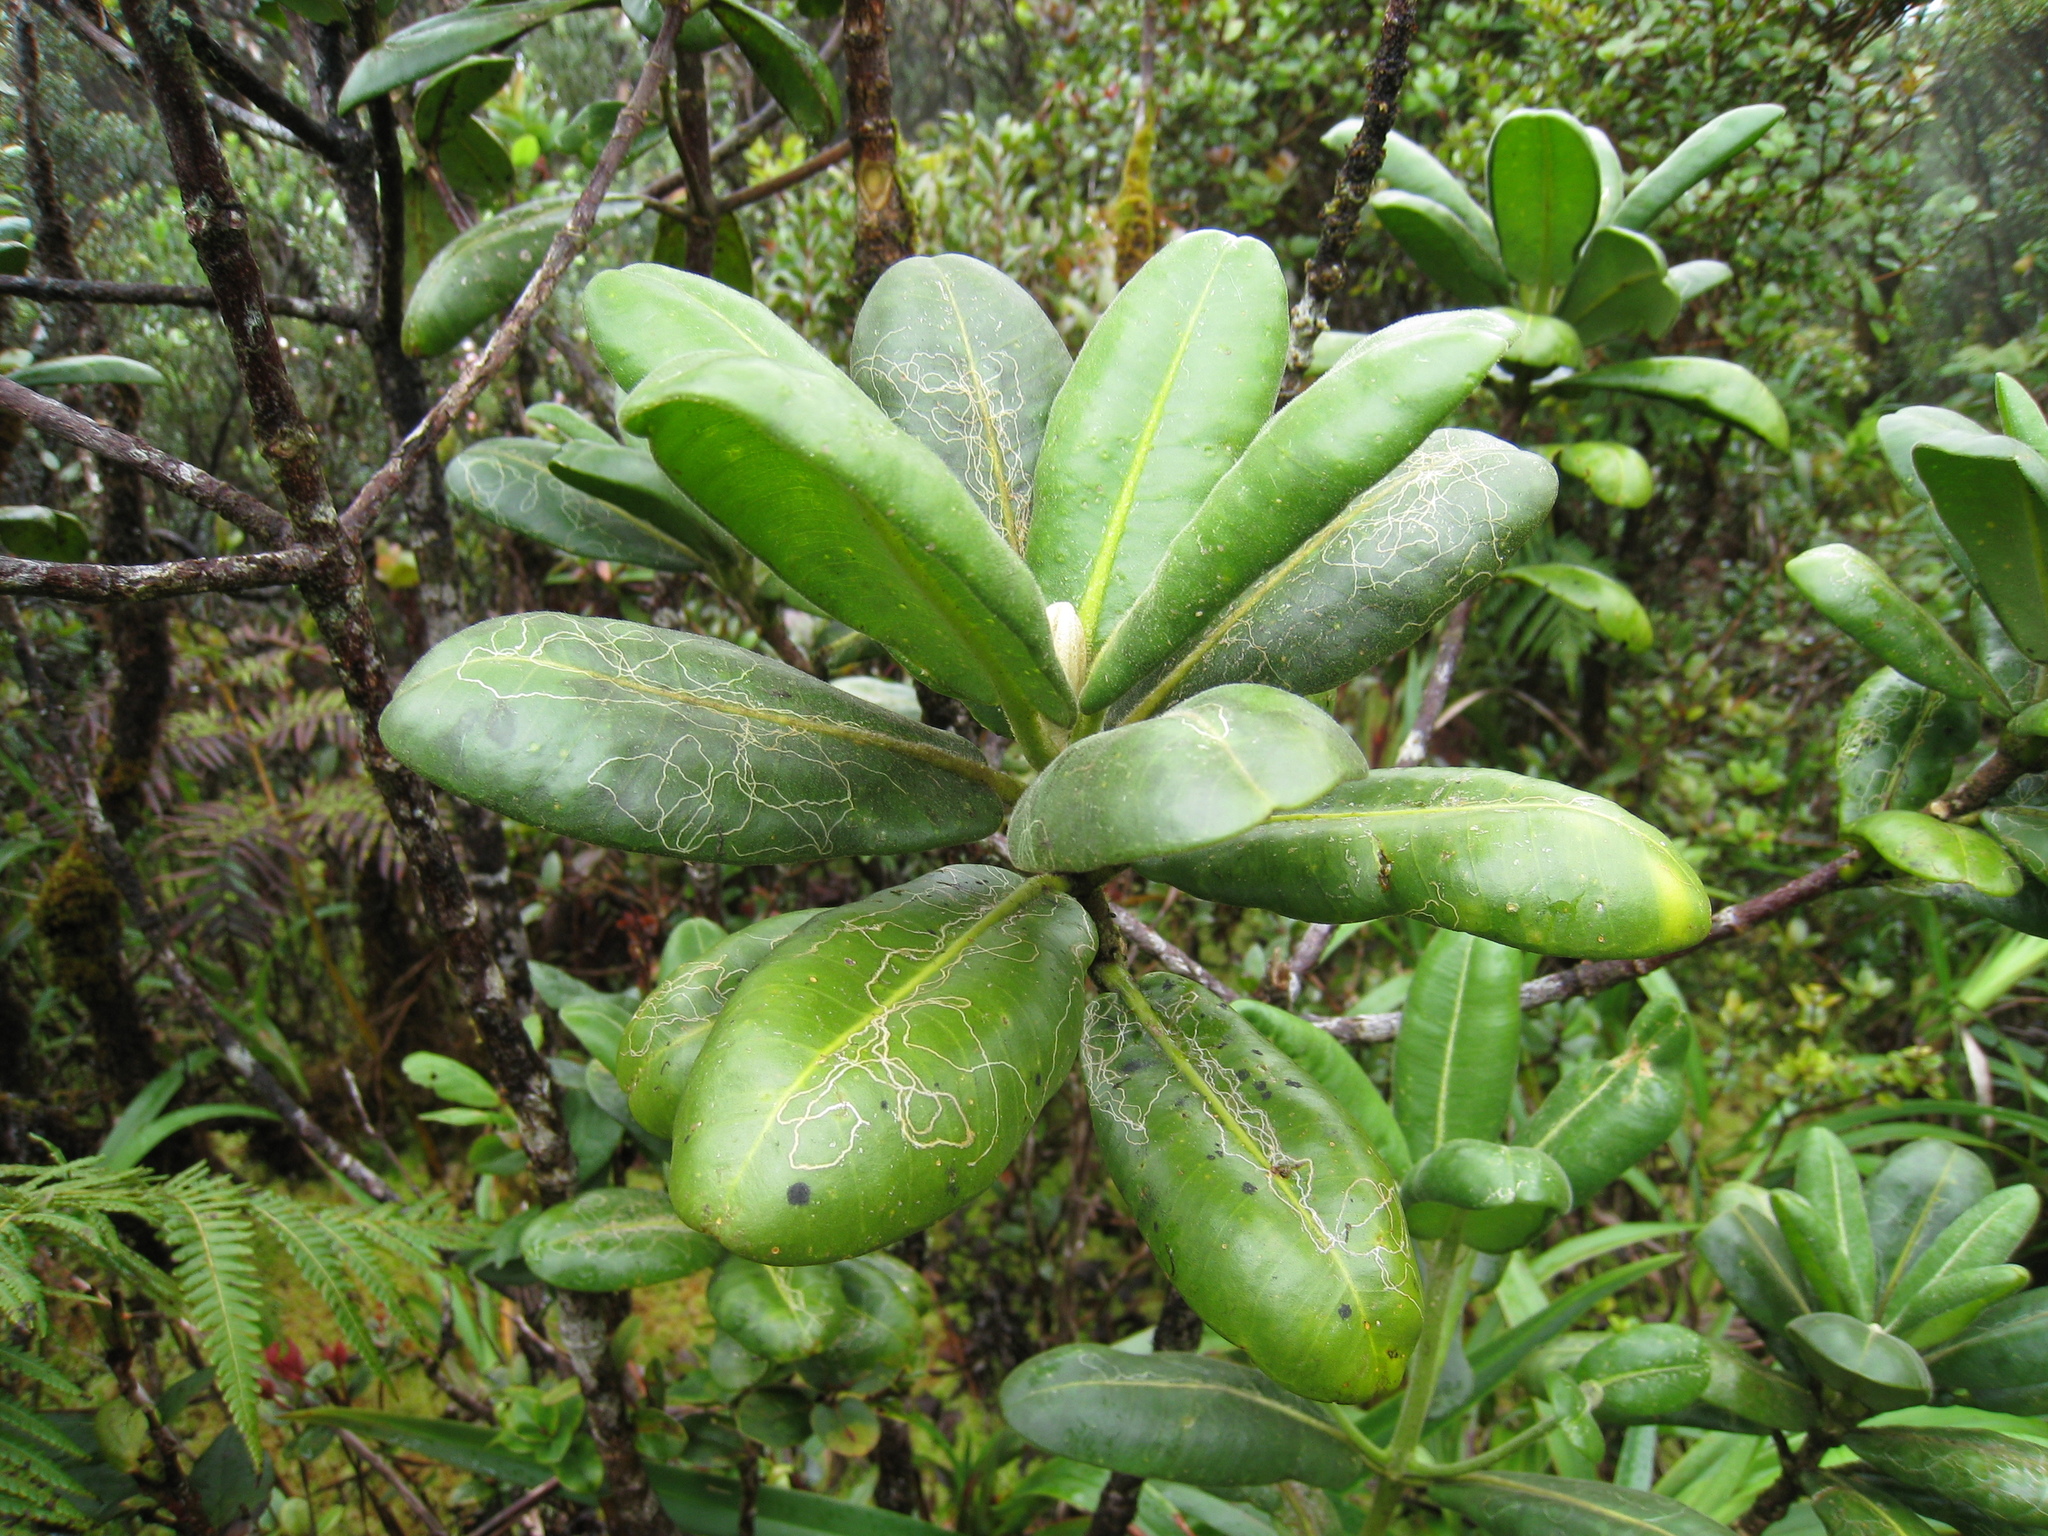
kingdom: Plantae
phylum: Tracheophyta
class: Magnoliopsida
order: Sapindales
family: Rutaceae
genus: Melicope
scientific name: Melicope clusiifolia
